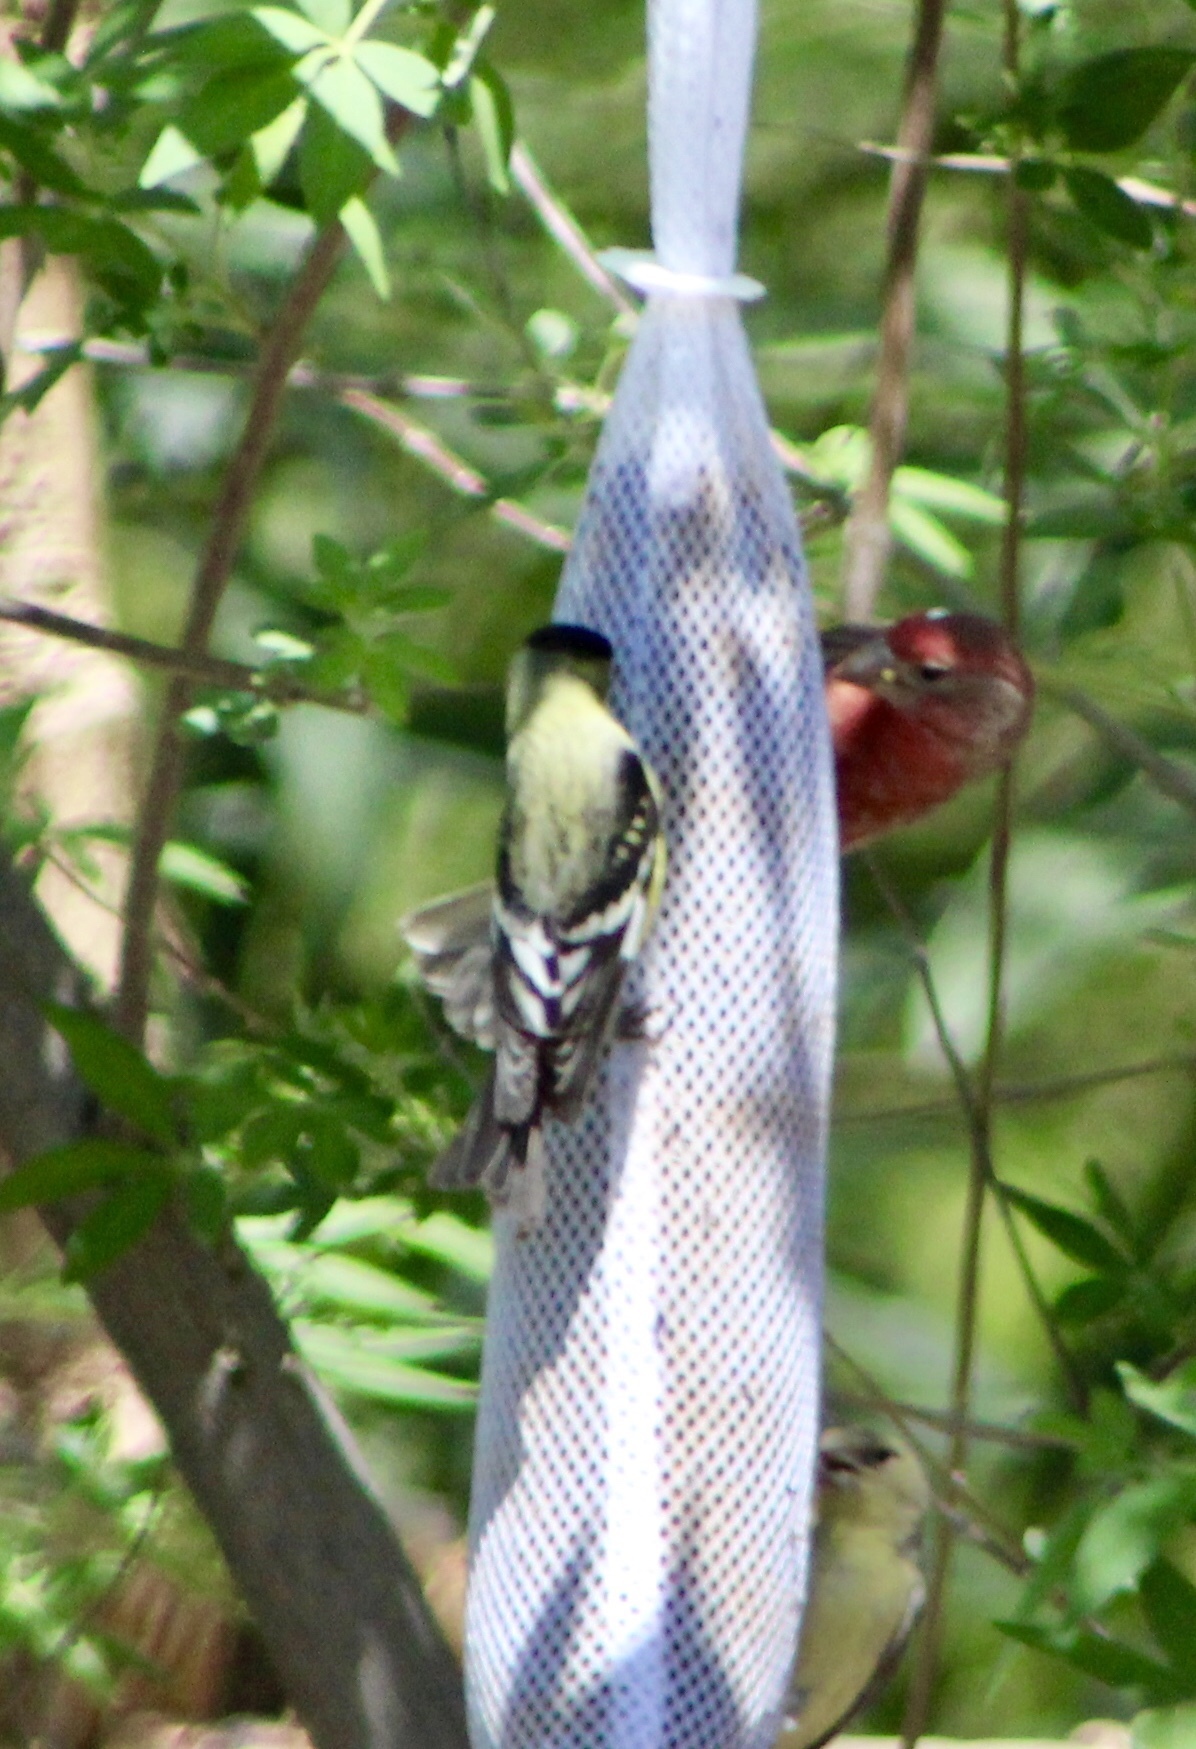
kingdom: Animalia
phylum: Chordata
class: Aves
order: Passeriformes
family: Fringillidae
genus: Spinus
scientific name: Spinus psaltria
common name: Lesser goldfinch
